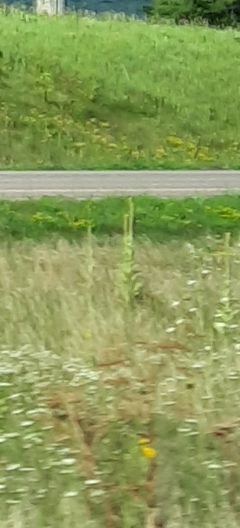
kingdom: Plantae
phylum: Tracheophyta
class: Magnoliopsida
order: Lamiales
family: Scrophulariaceae
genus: Verbascum
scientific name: Verbascum thapsus
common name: Common mullein
